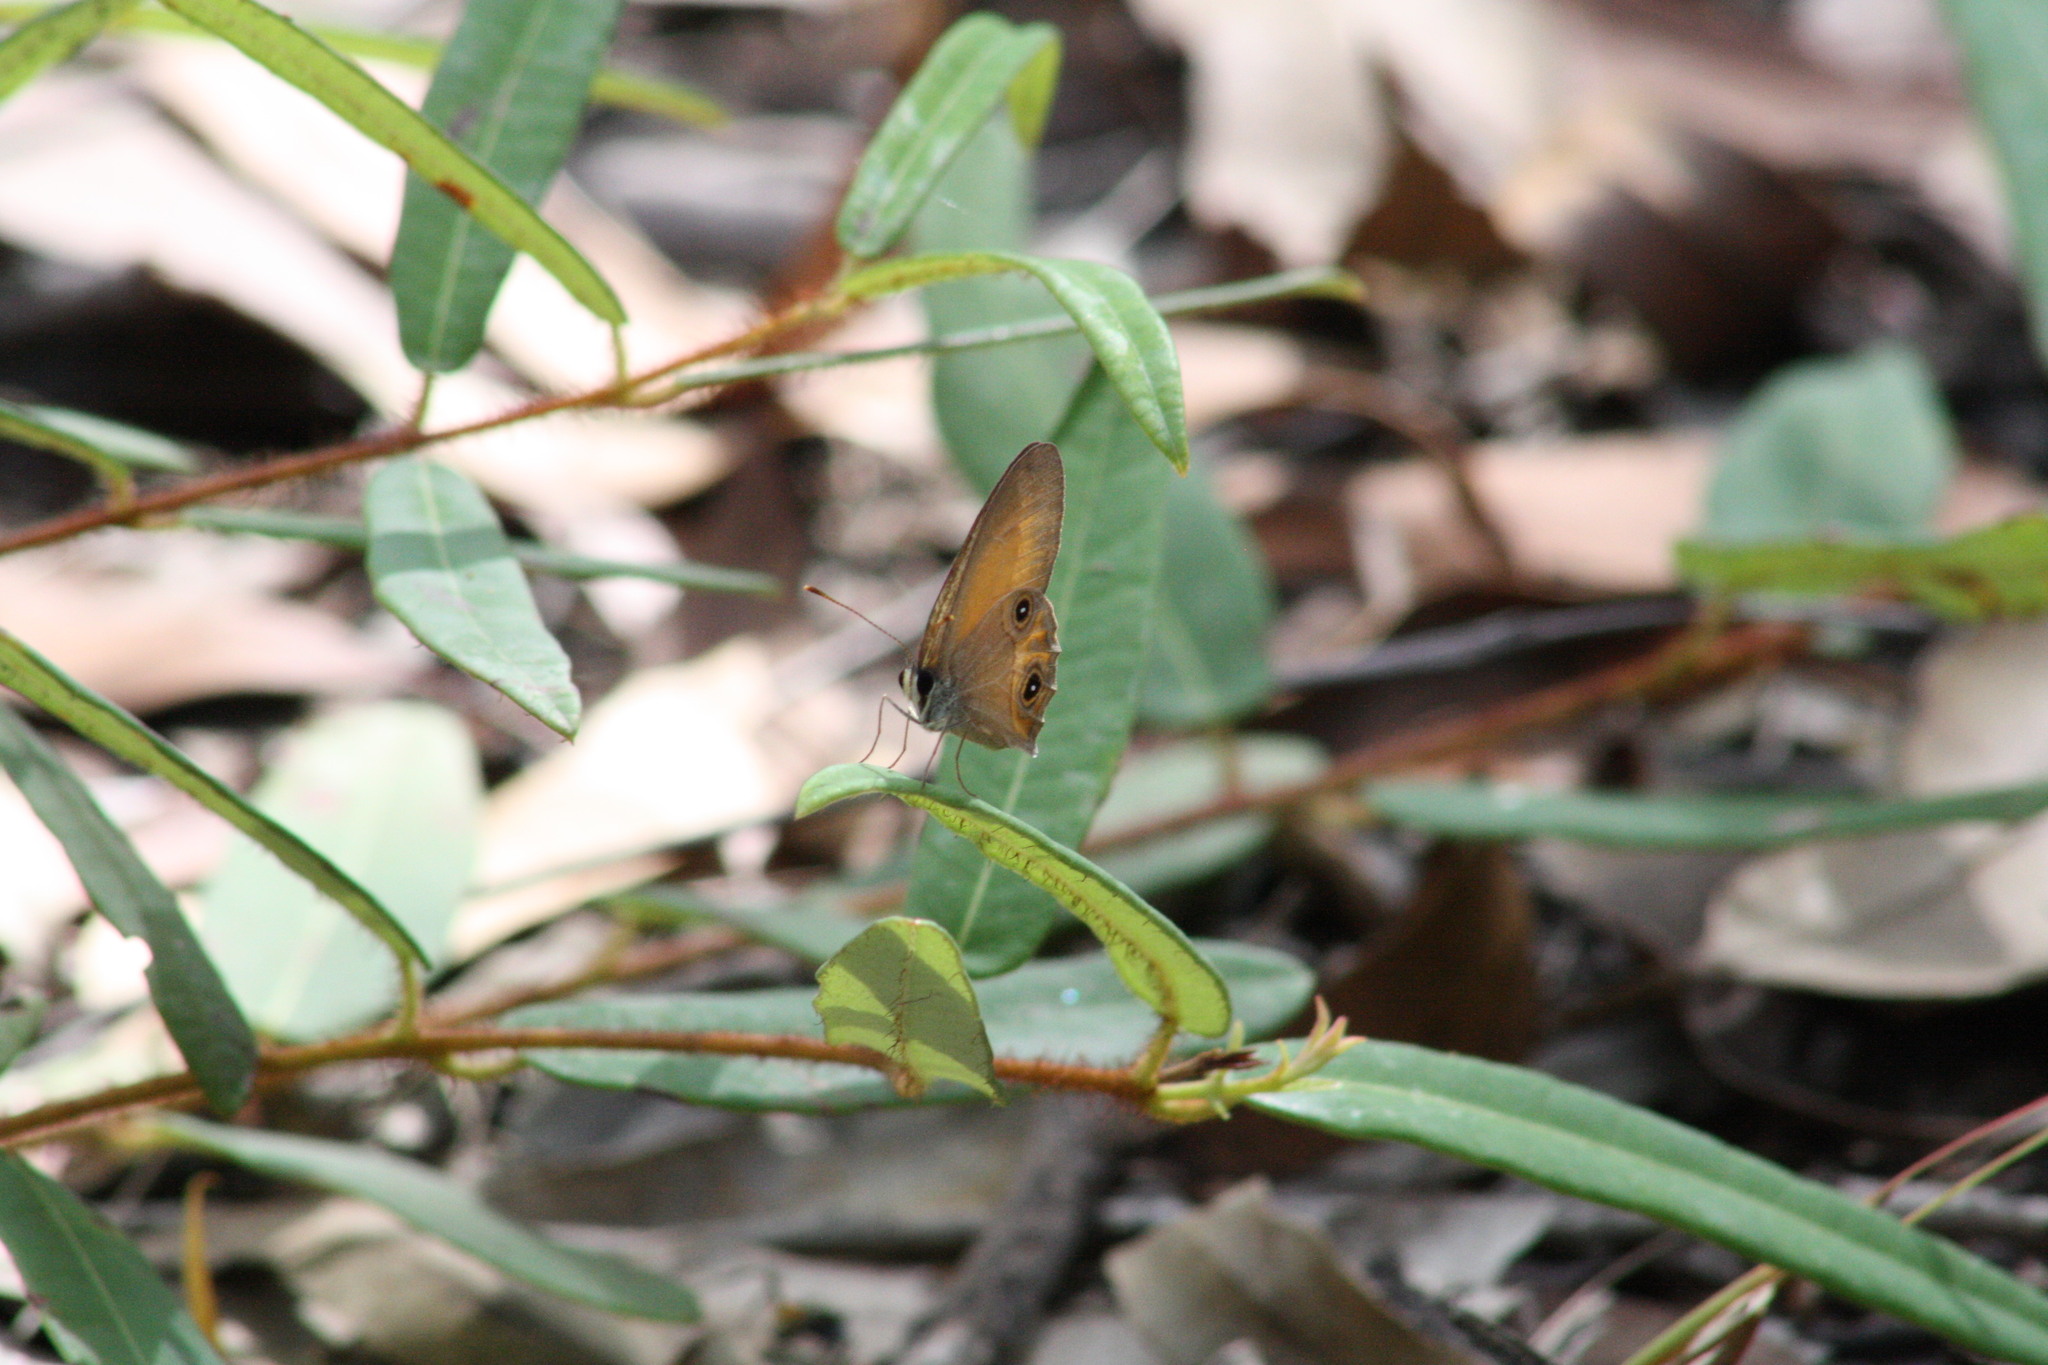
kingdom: Animalia
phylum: Arthropoda
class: Insecta
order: Lepidoptera
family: Nymphalidae
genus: Hypocysta
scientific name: Hypocysta adiante
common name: Orange ringlet
